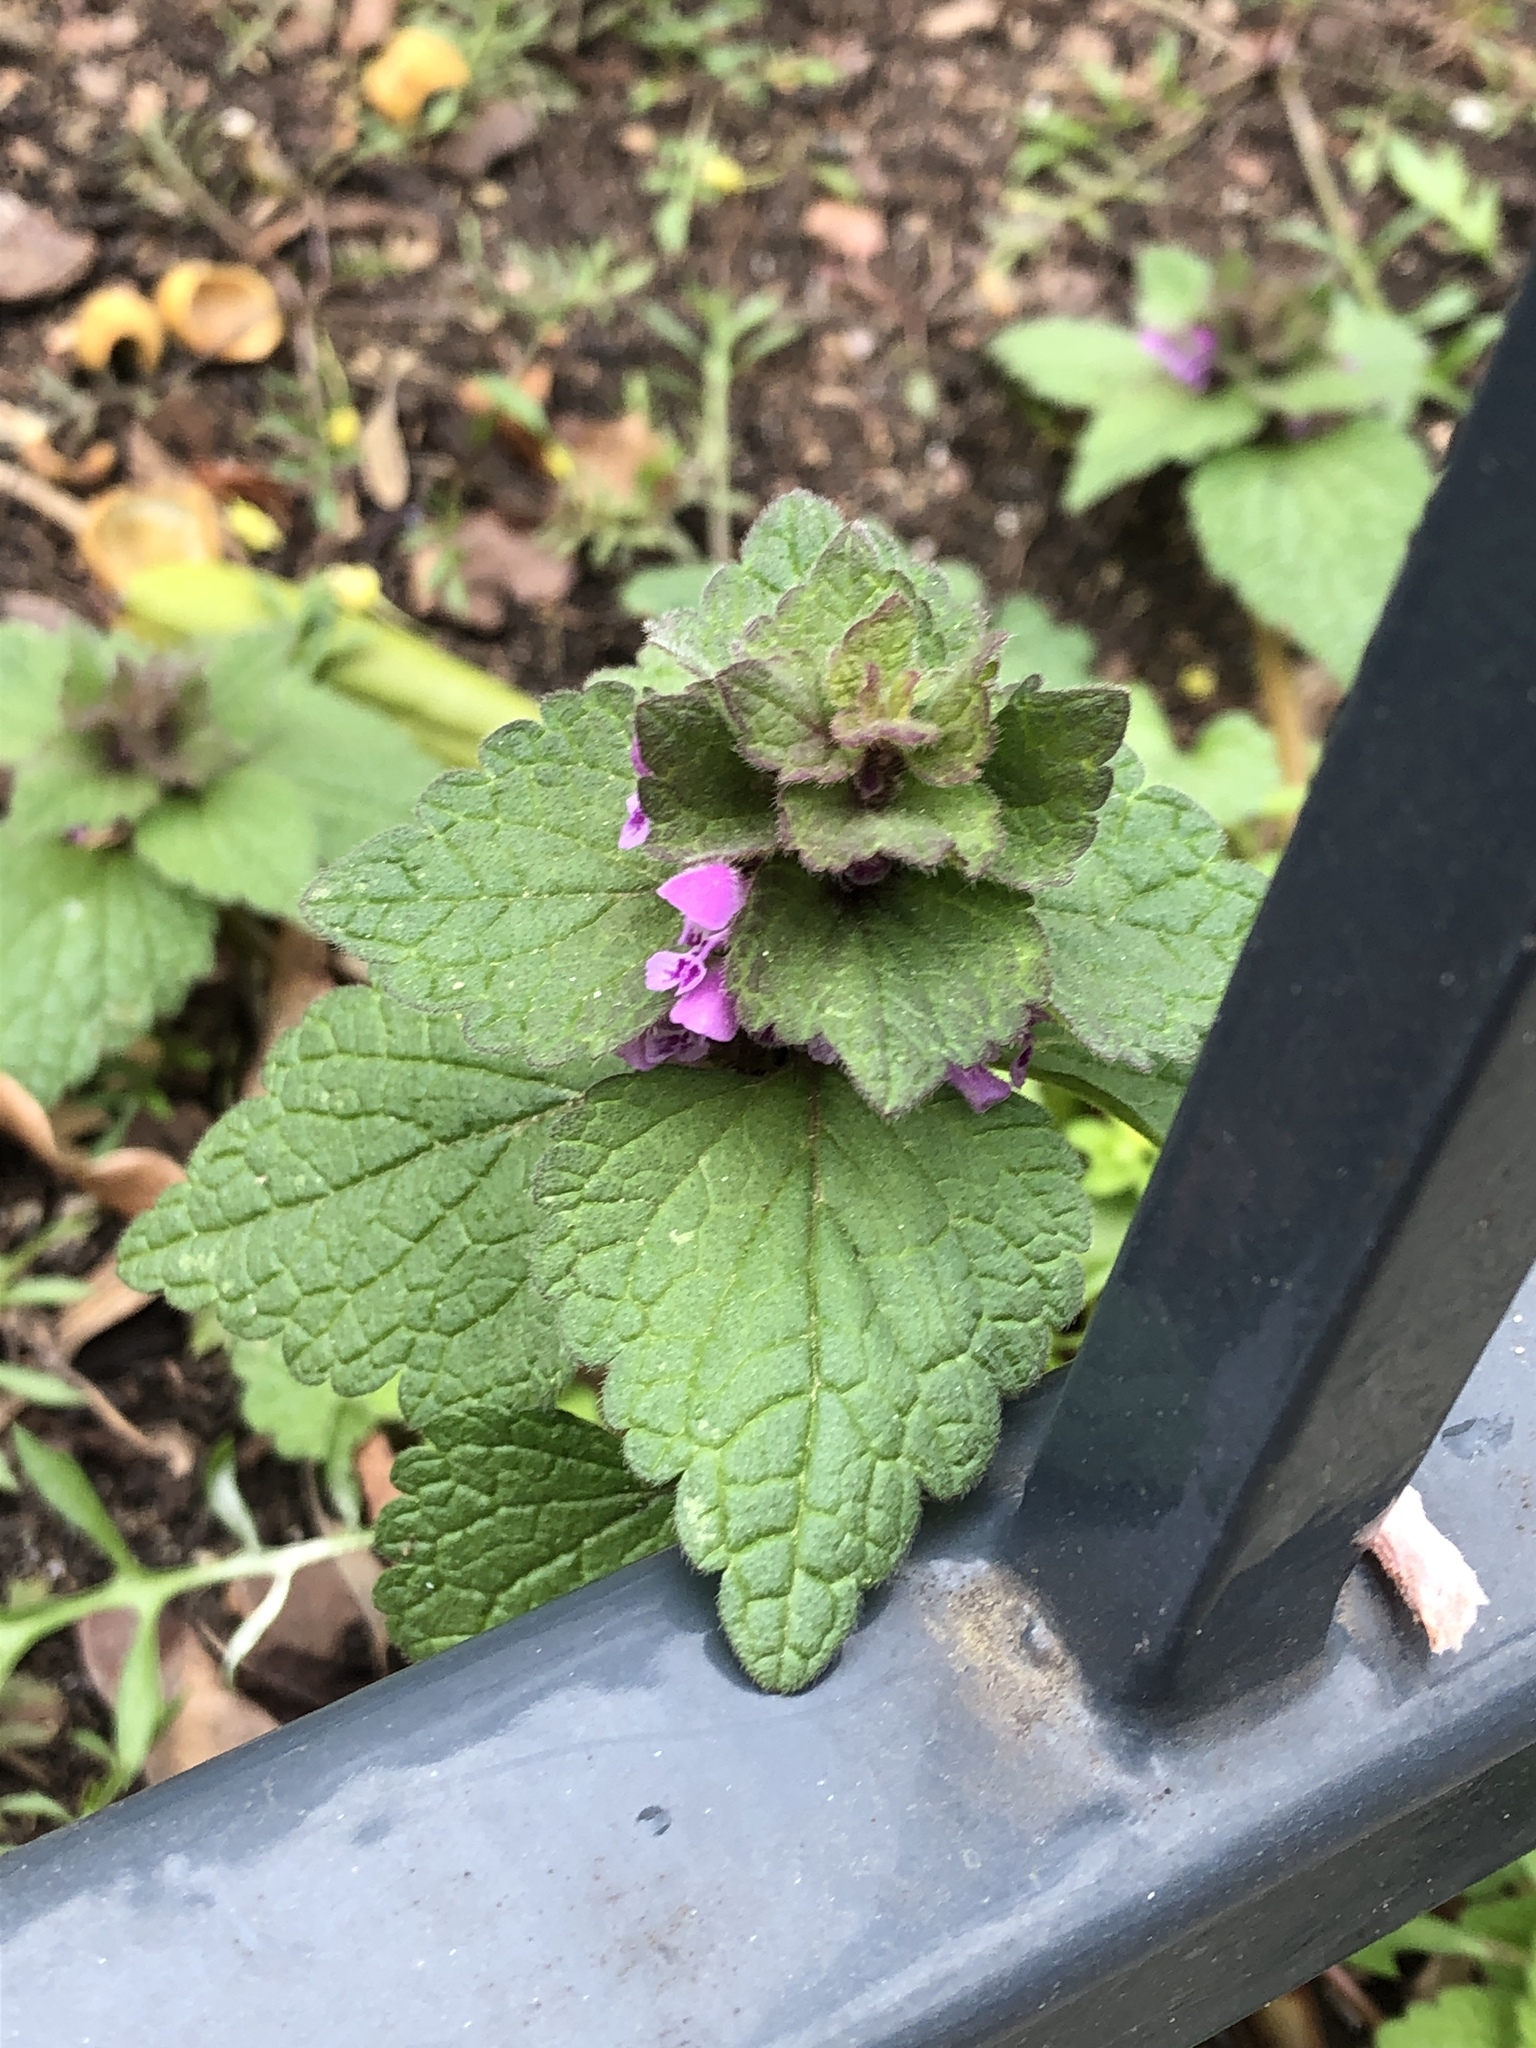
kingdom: Plantae
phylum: Tracheophyta
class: Magnoliopsida
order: Lamiales
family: Lamiaceae
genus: Lamium
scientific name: Lamium purpureum
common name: Red dead-nettle
